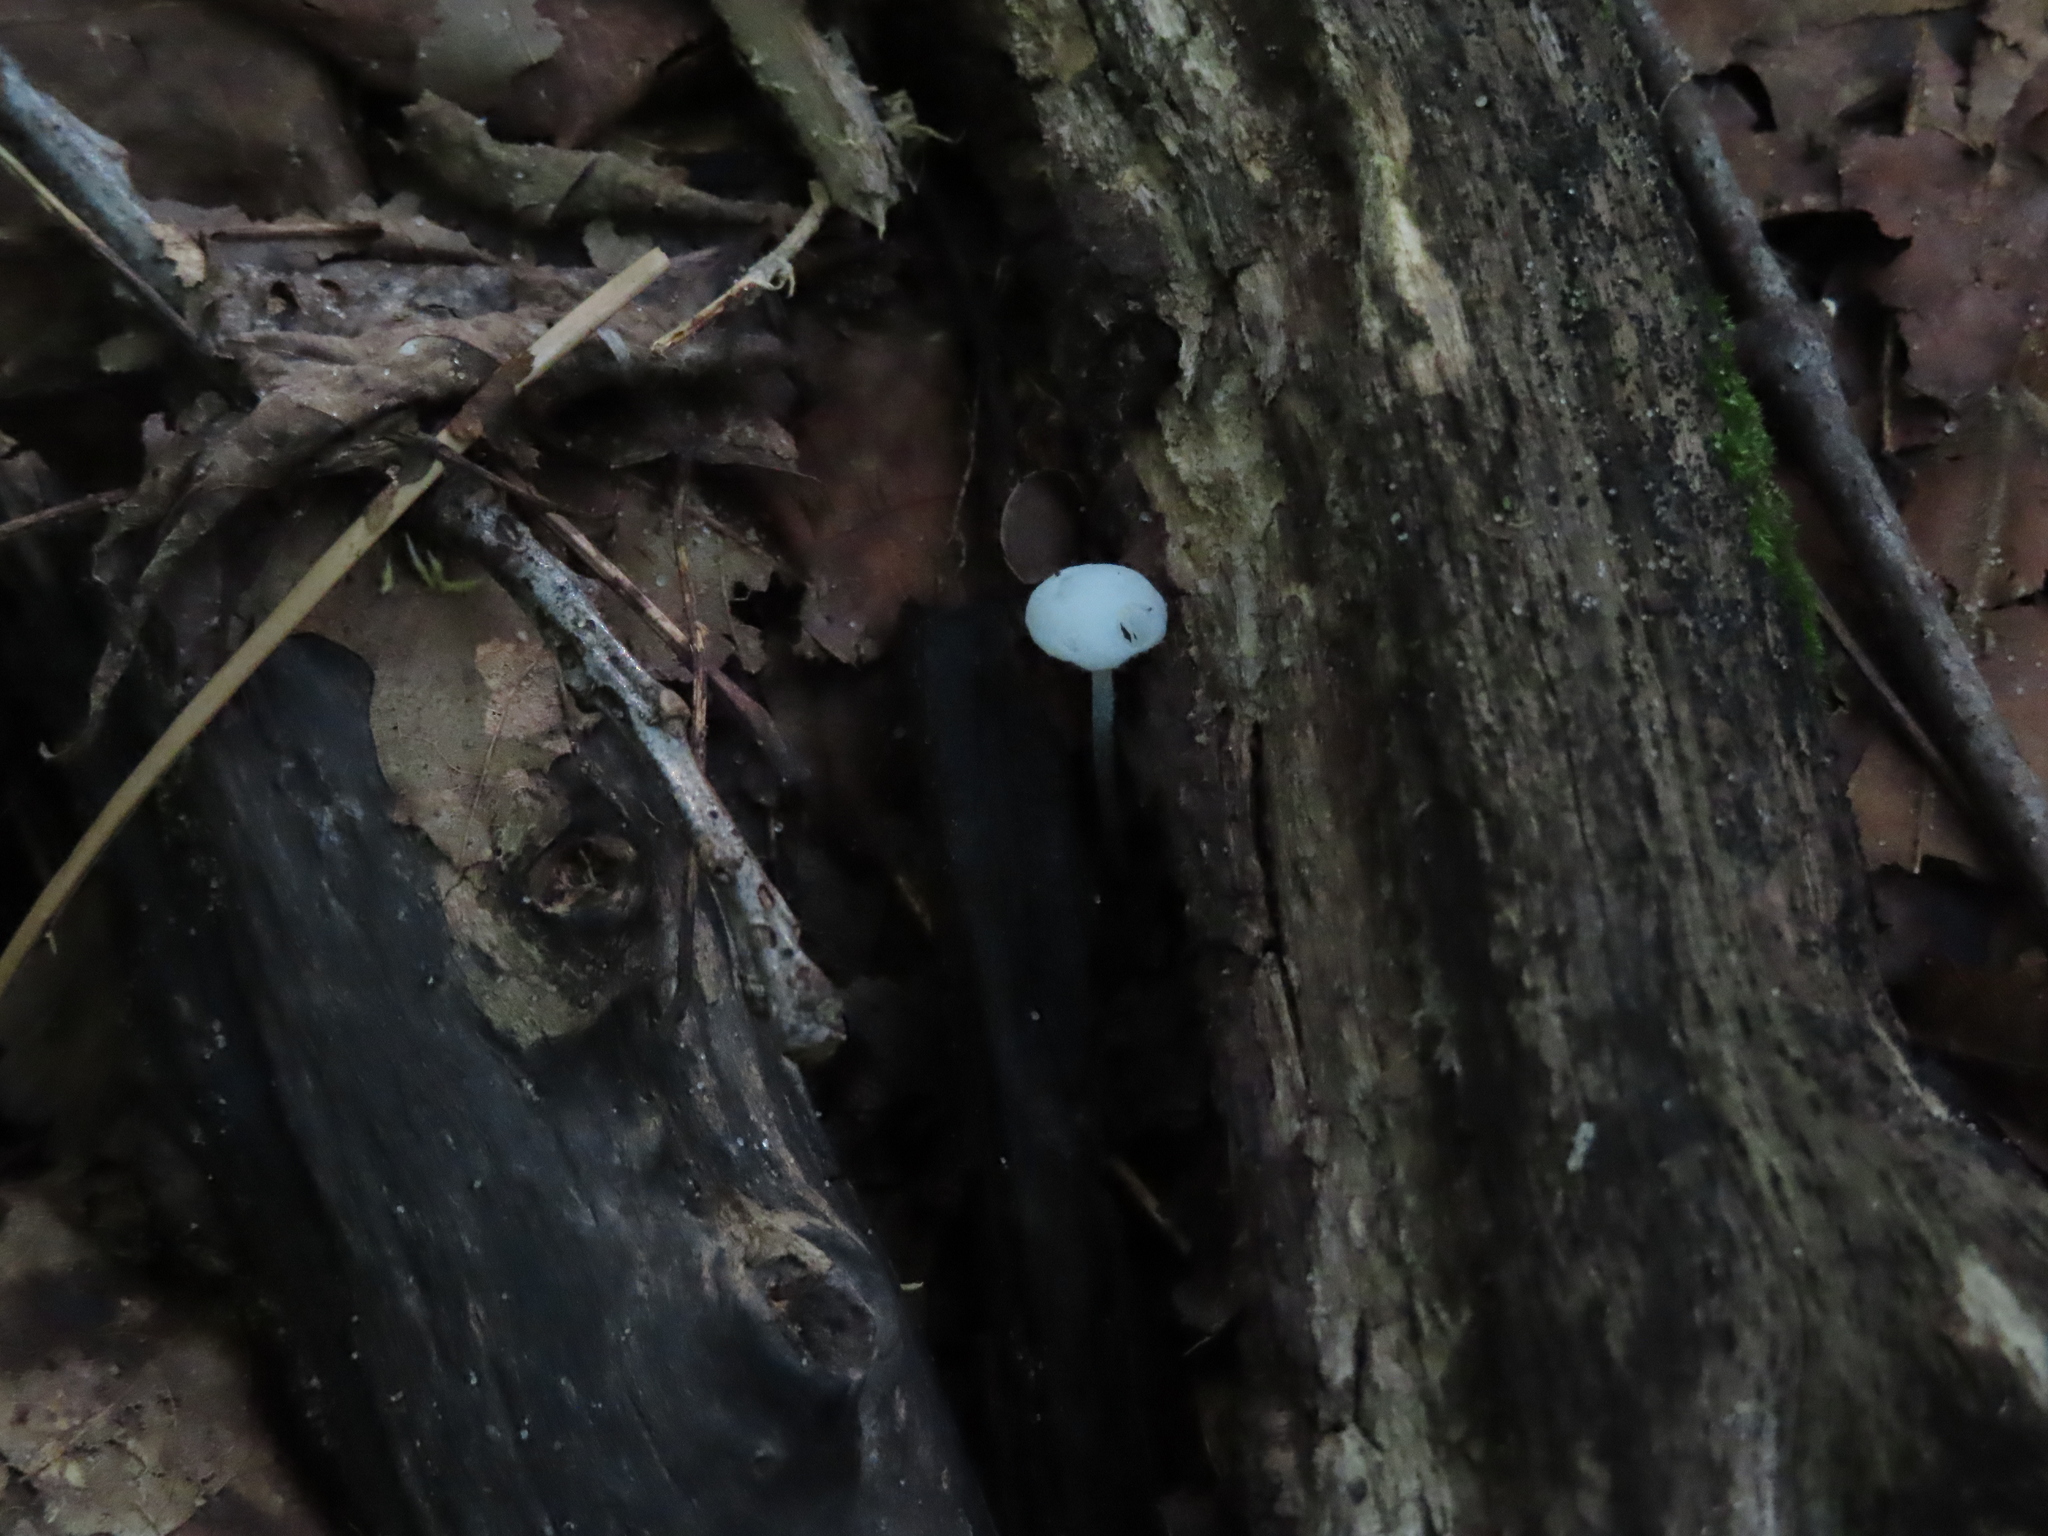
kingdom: Fungi
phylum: Basidiomycota
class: Agaricomycetes
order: Agaricales
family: Marasmiaceae
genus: Tetrapyrgos
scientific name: Tetrapyrgos nigripes
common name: Black-stalked marasmius
